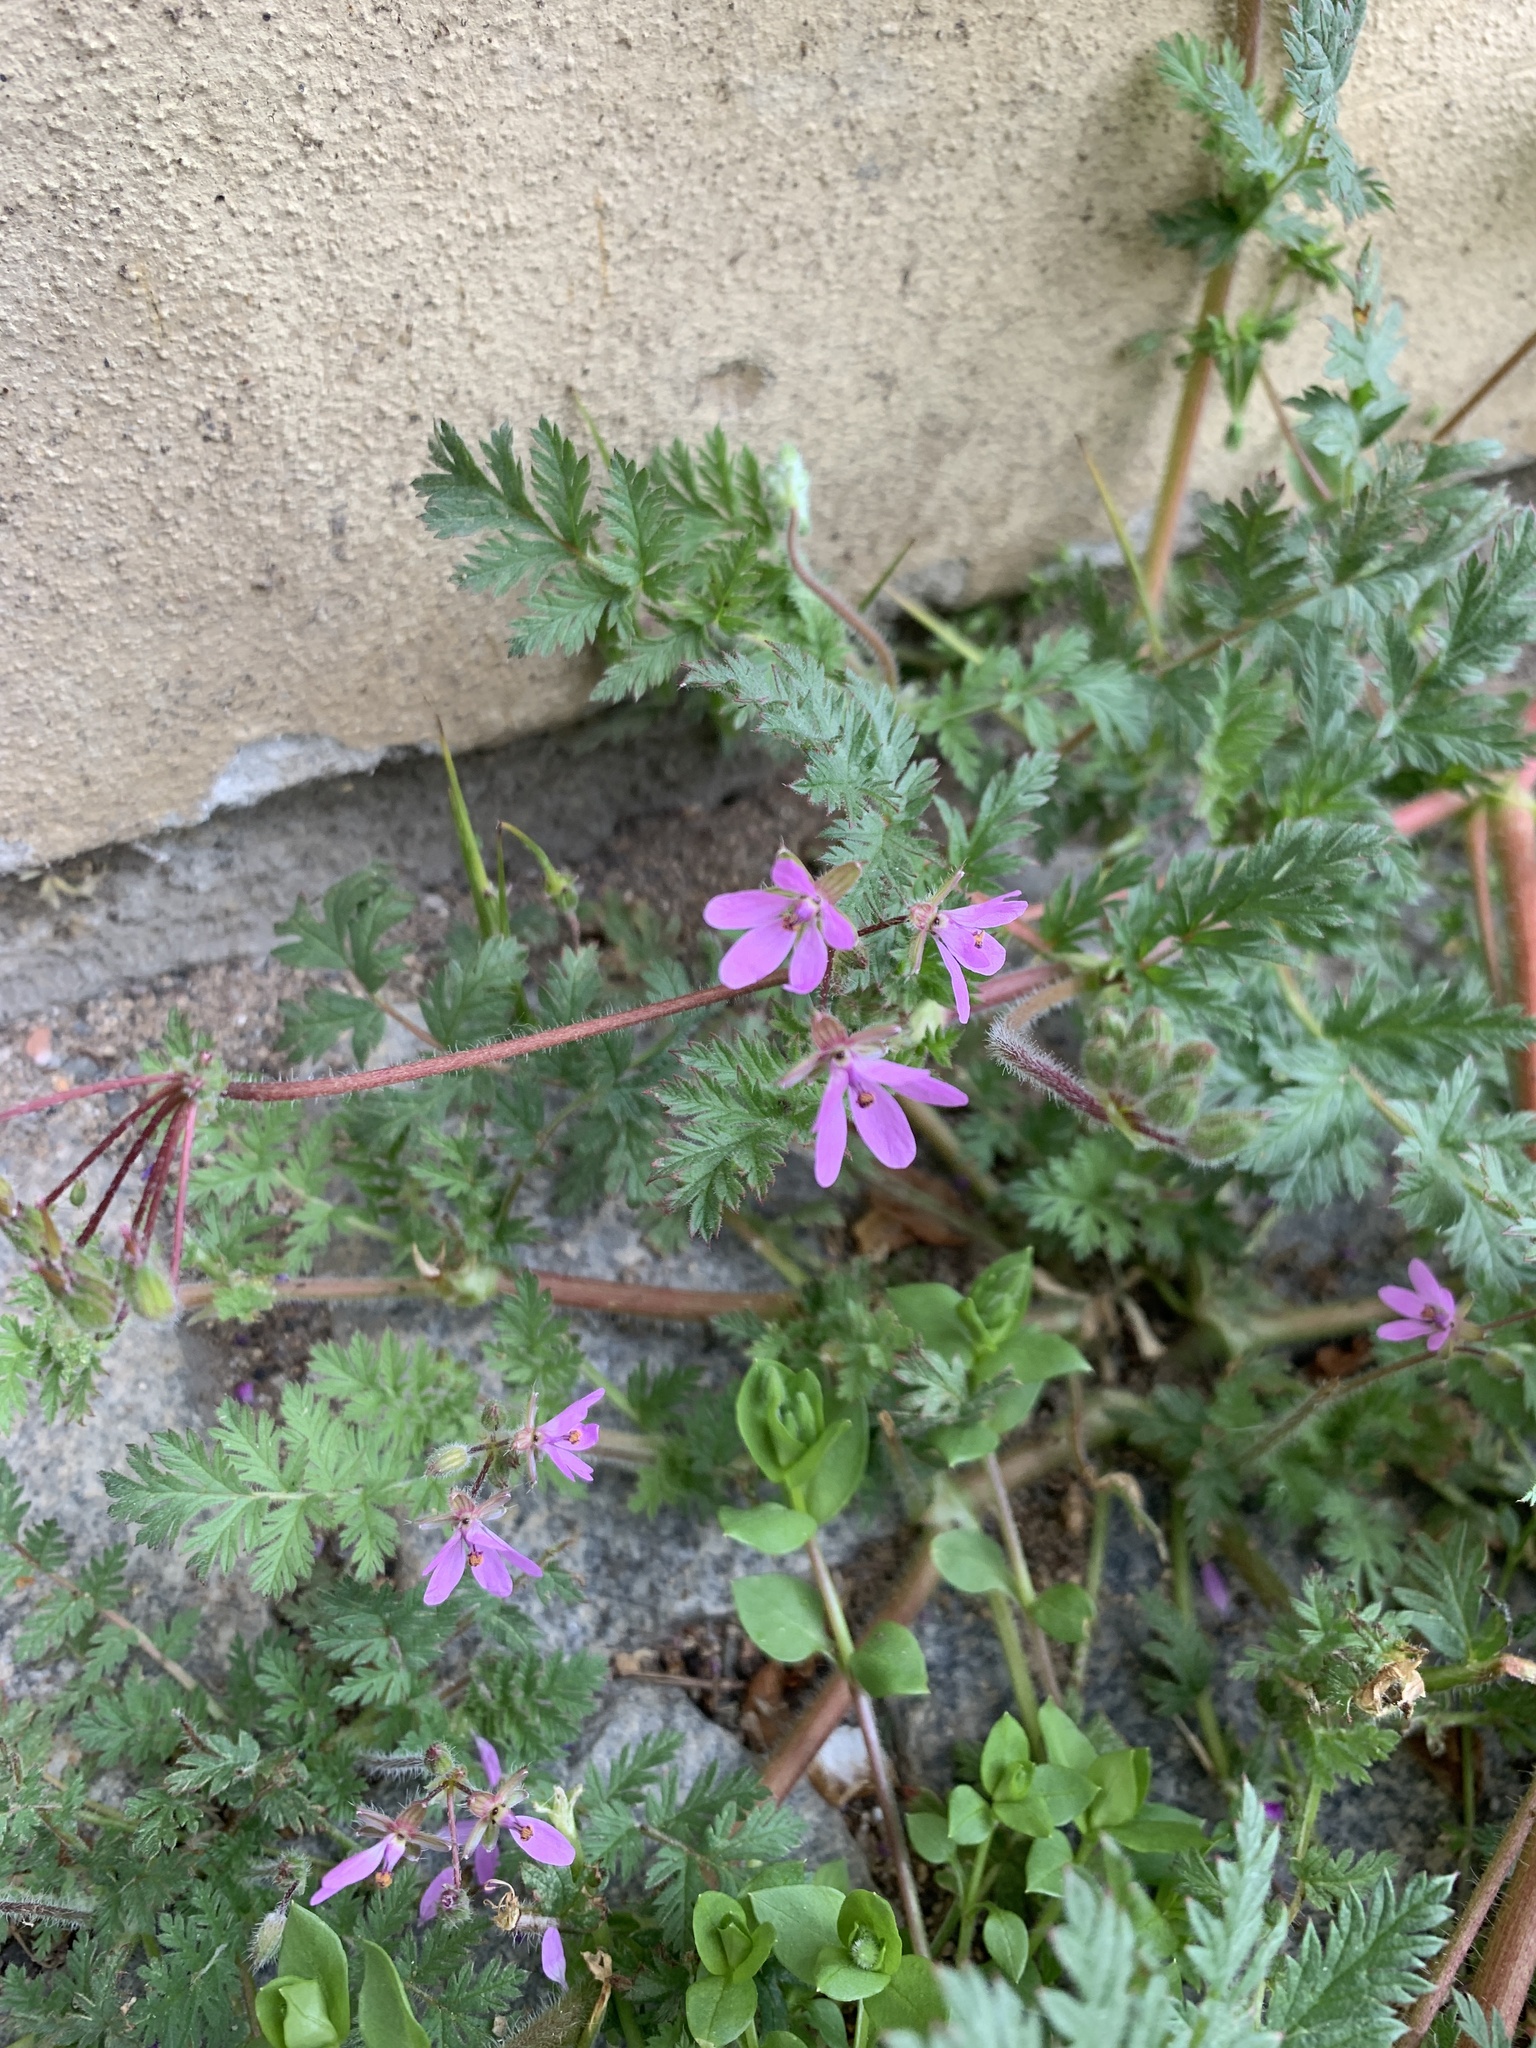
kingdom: Plantae
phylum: Tracheophyta
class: Magnoliopsida
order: Geraniales
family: Geraniaceae
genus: Erodium
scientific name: Erodium cicutarium
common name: Common stork's-bill
